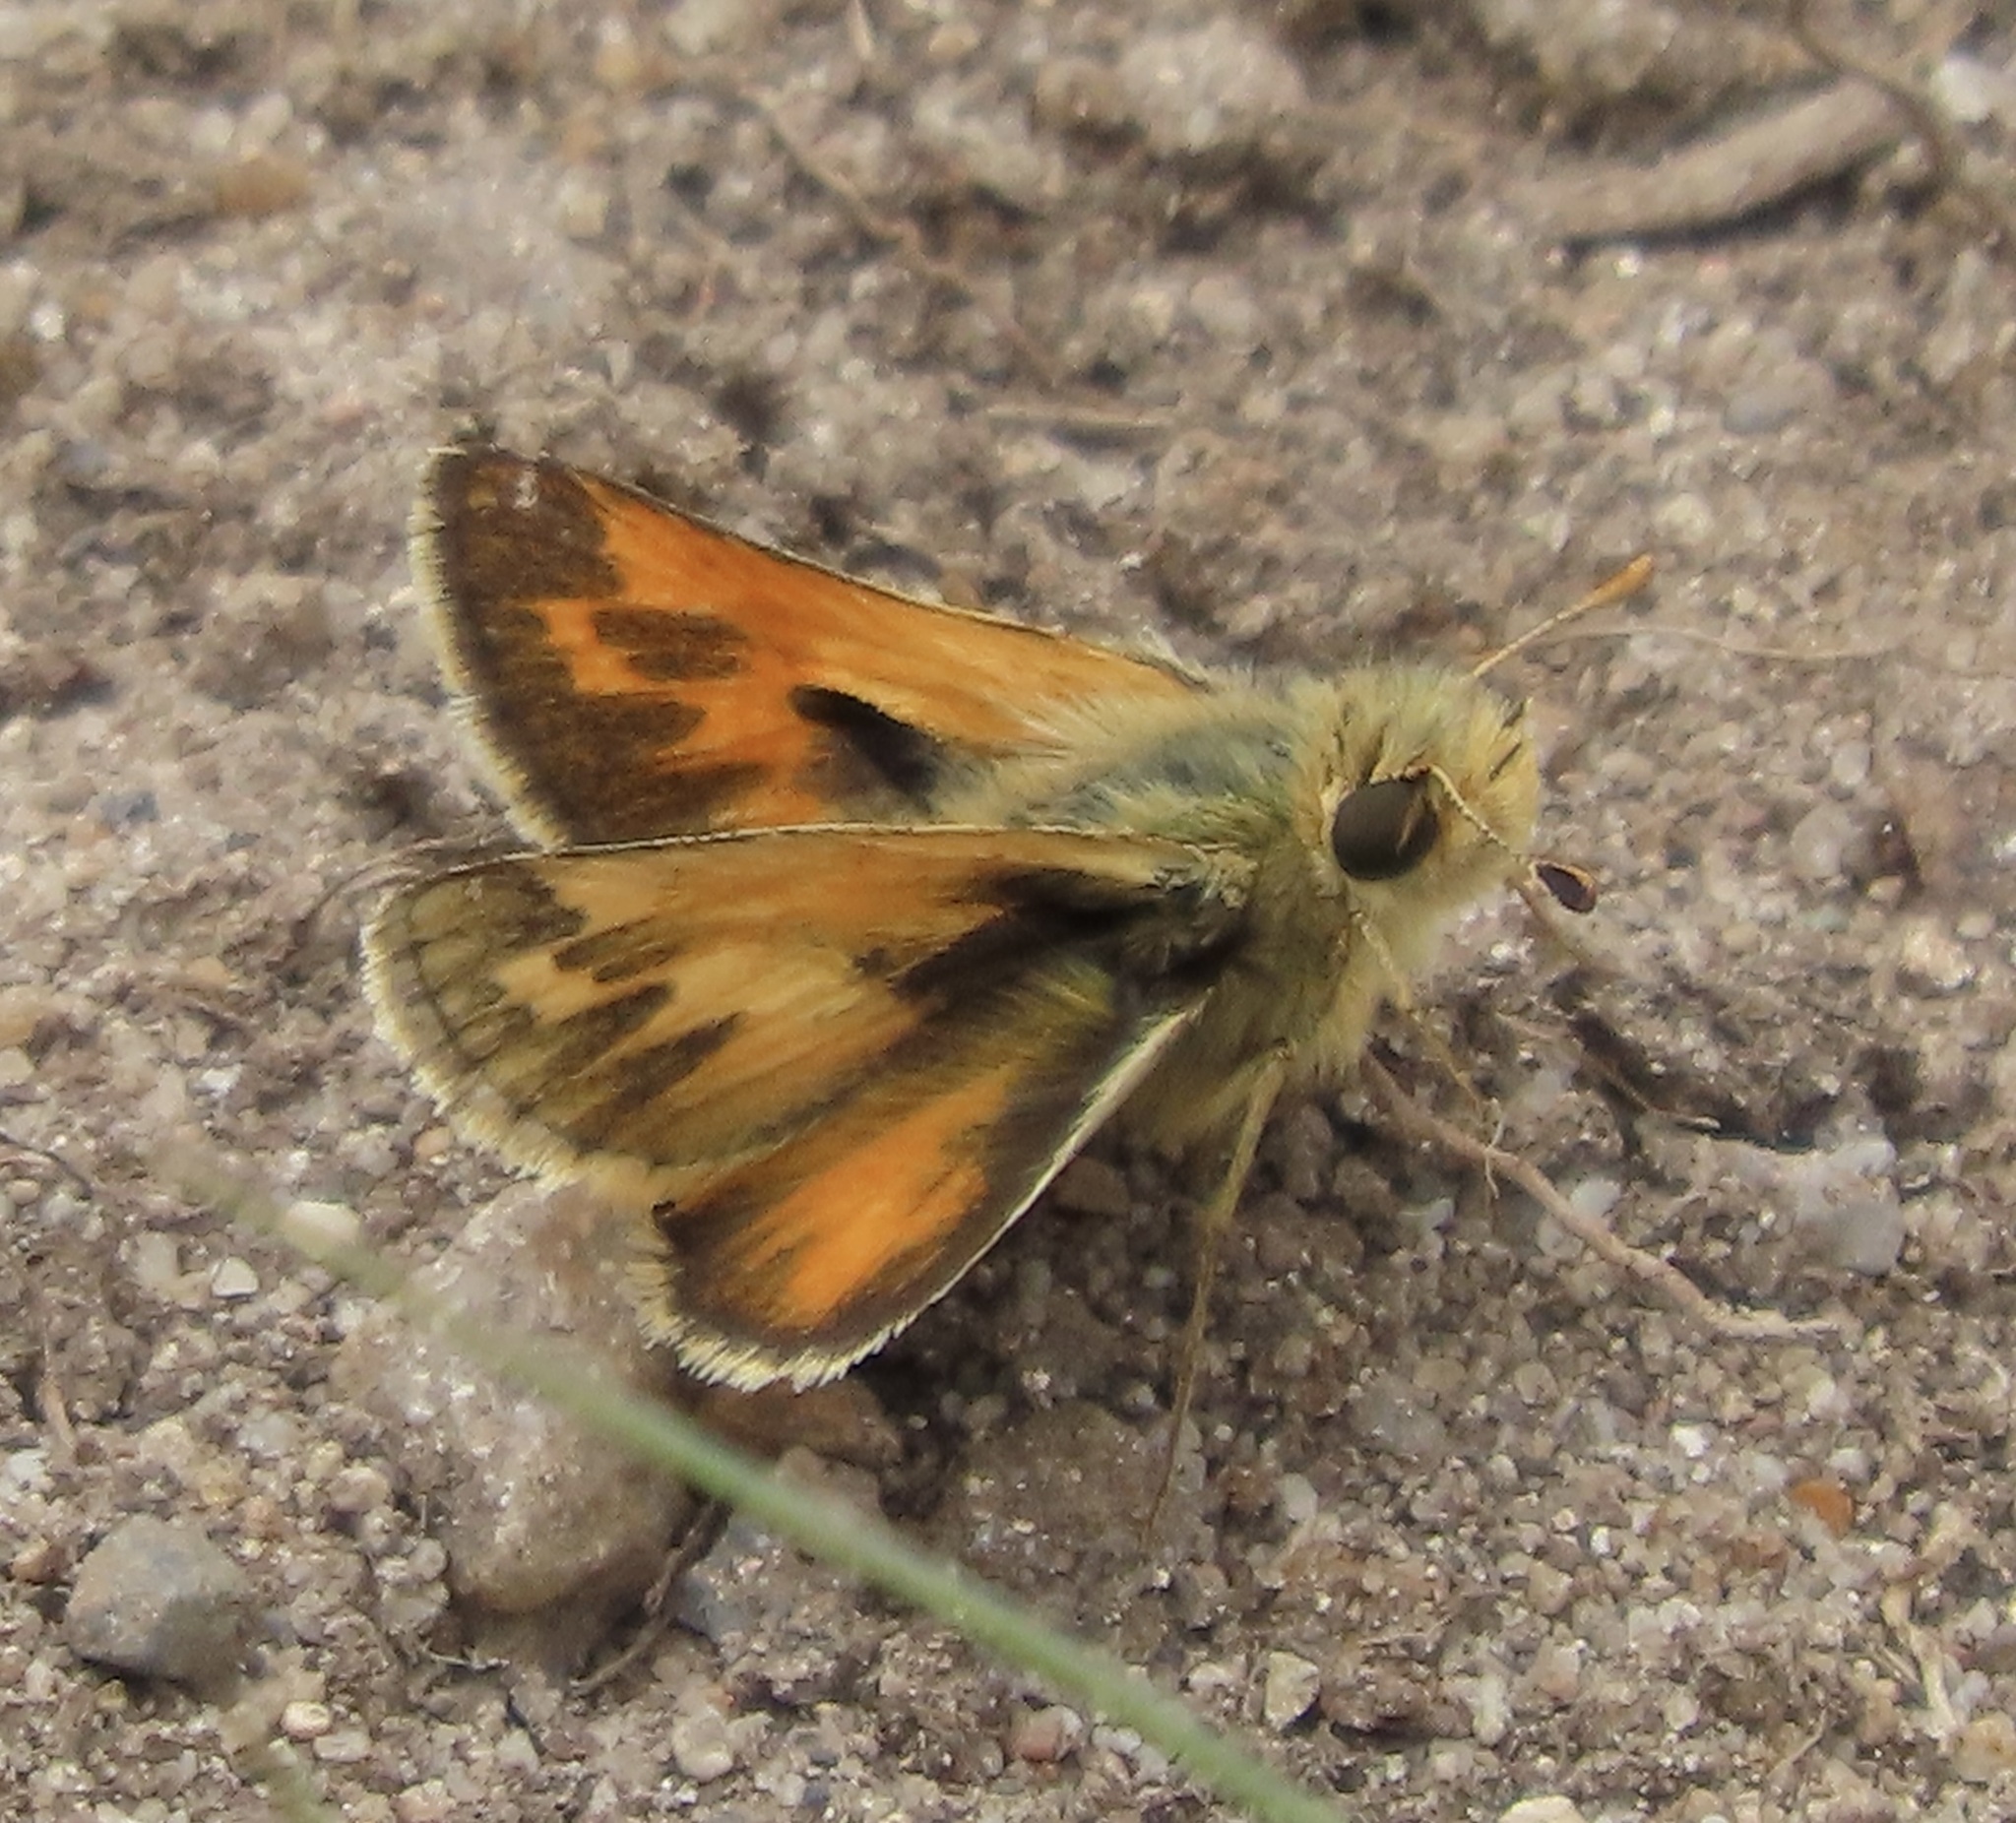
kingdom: Animalia
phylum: Arthropoda
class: Insecta
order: Lepidoptera
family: Hesperiidae
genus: Polites
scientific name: Polites sabuleti
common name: Sandhill skipper
